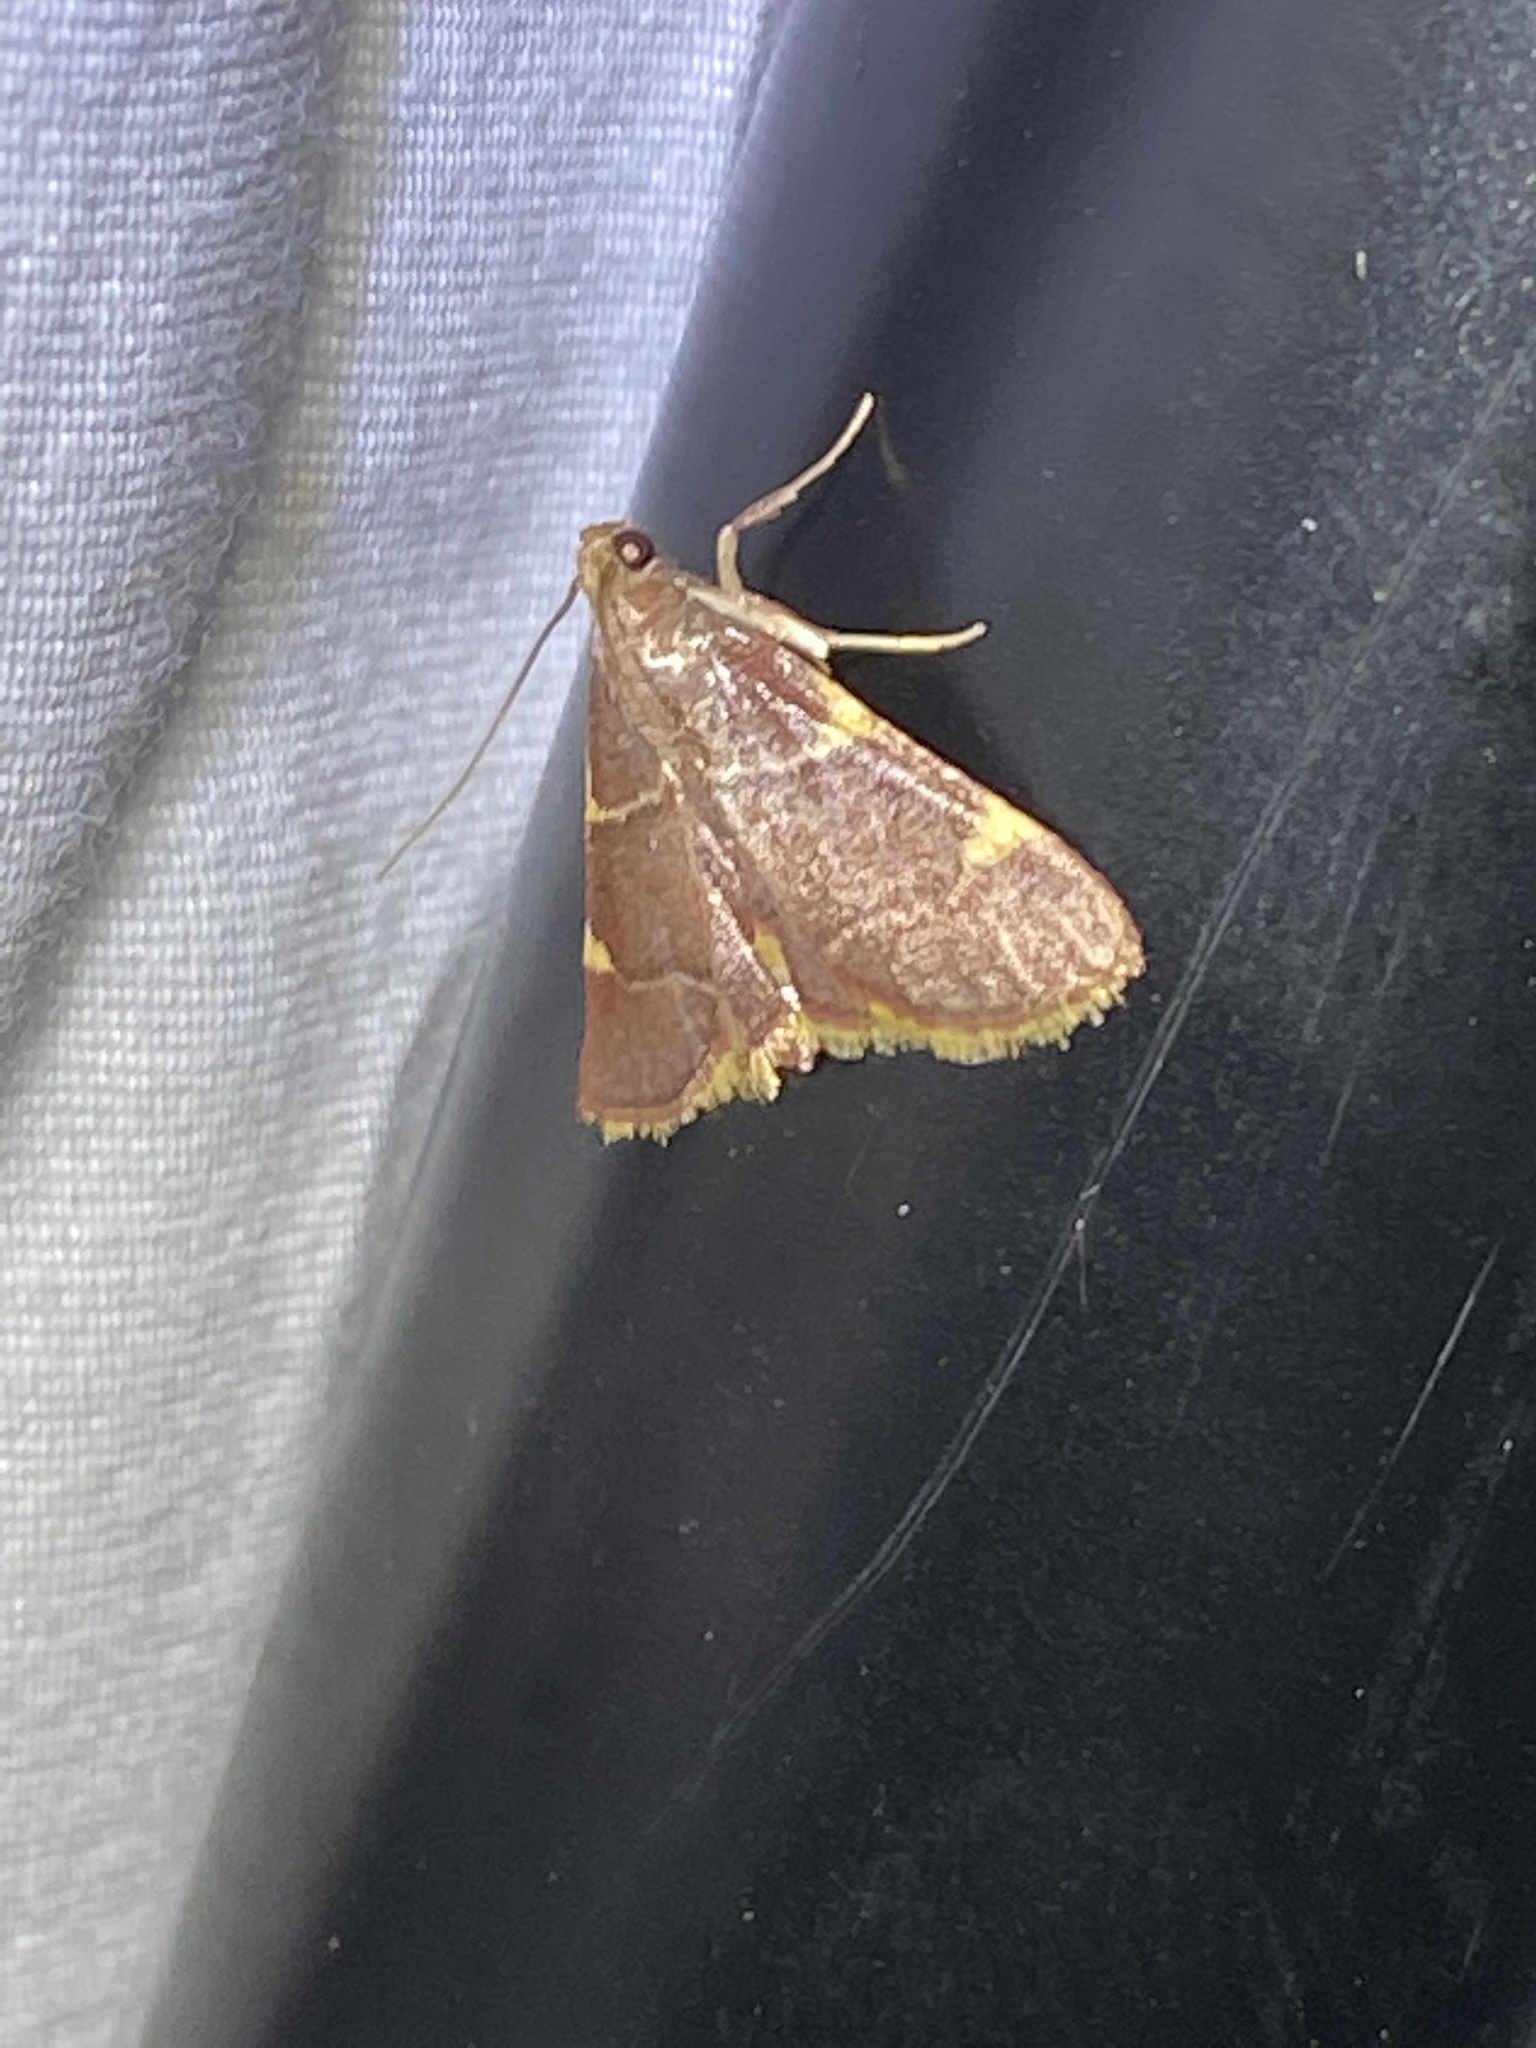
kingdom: Animalia
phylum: Arthropoda
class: Insecta
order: Lepidoptera
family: Pyralidae
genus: Hypsopygia
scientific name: Hypsopygia olinalis
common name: Yellow-fringed dolichomia moth
